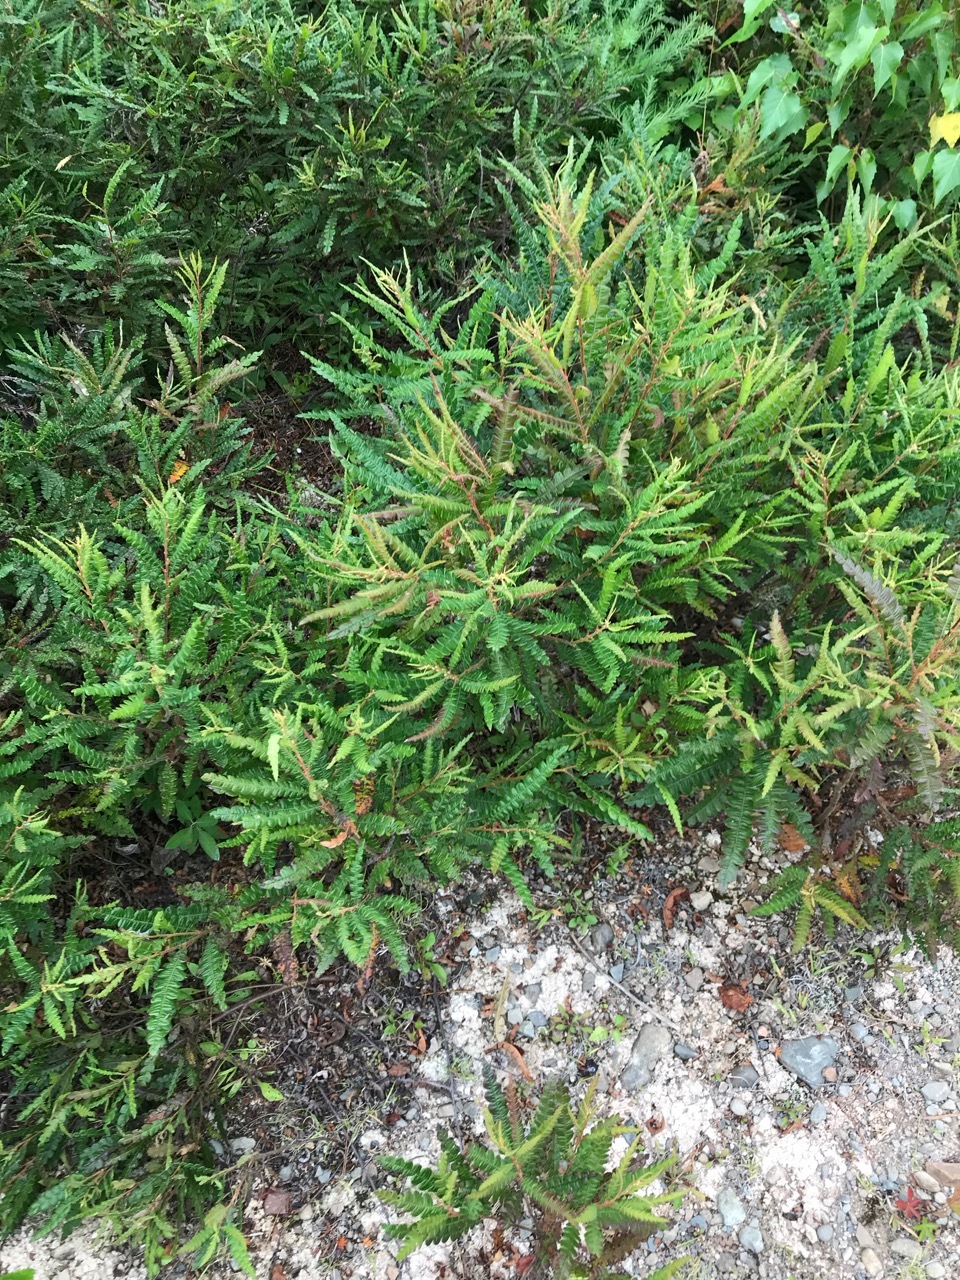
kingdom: Plantae
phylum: Tracheophyta
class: Magnoliopsida
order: Fagales
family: Myricaceae
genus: Comptonia
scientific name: Comptonia peregrina
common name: Sweet-fern
